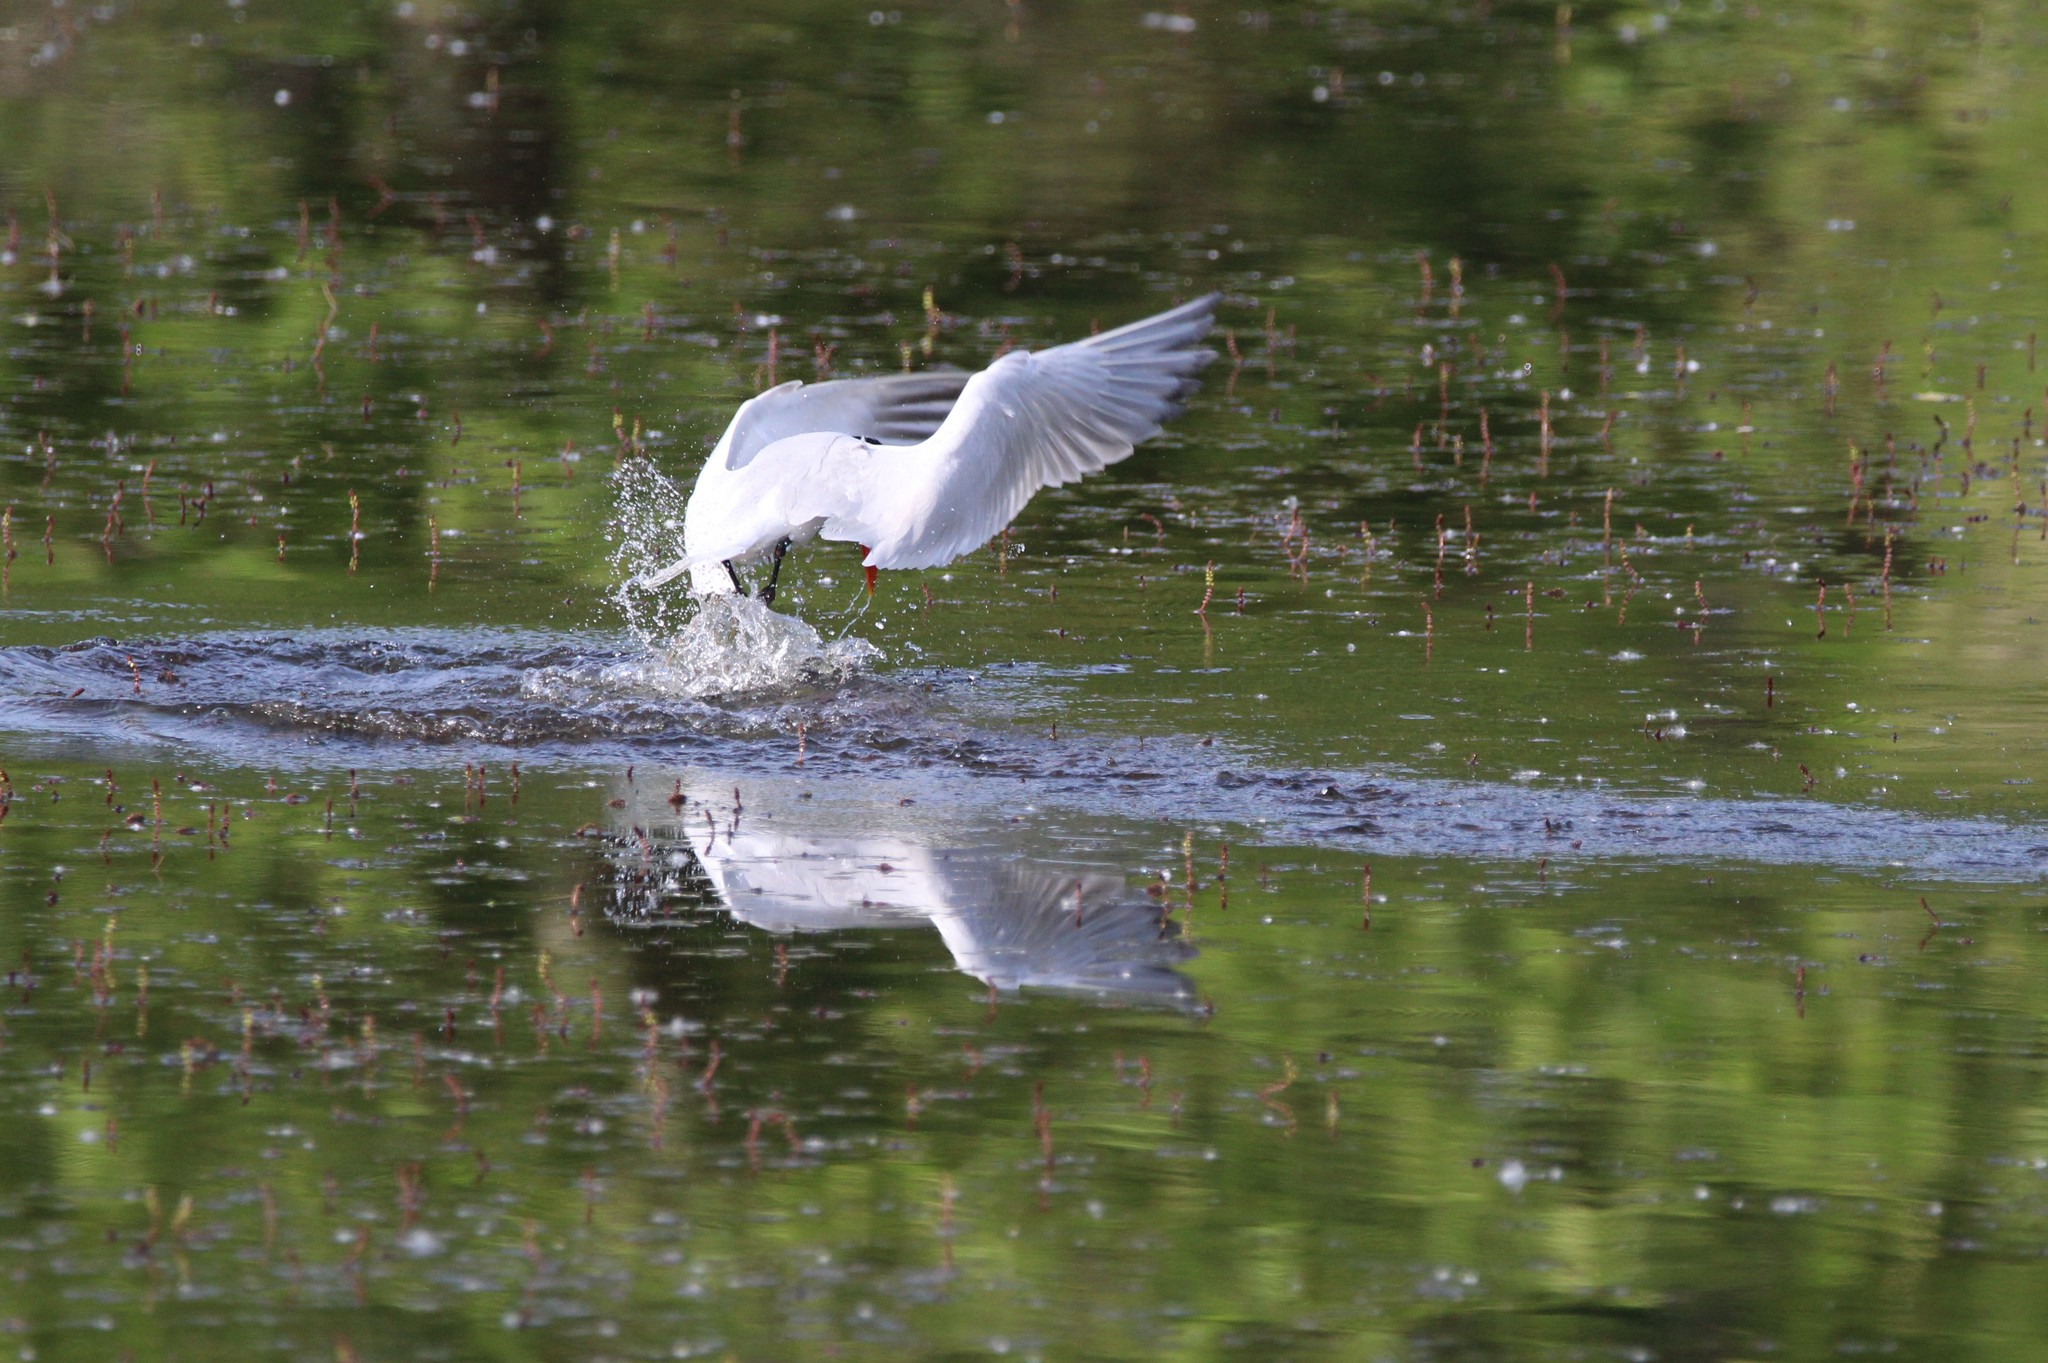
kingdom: Animalia
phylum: Chordata
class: Aves
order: Charadriiformes
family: Laridae
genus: Hydroprogne
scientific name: Hydroprogne caspia
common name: Caspian tern
